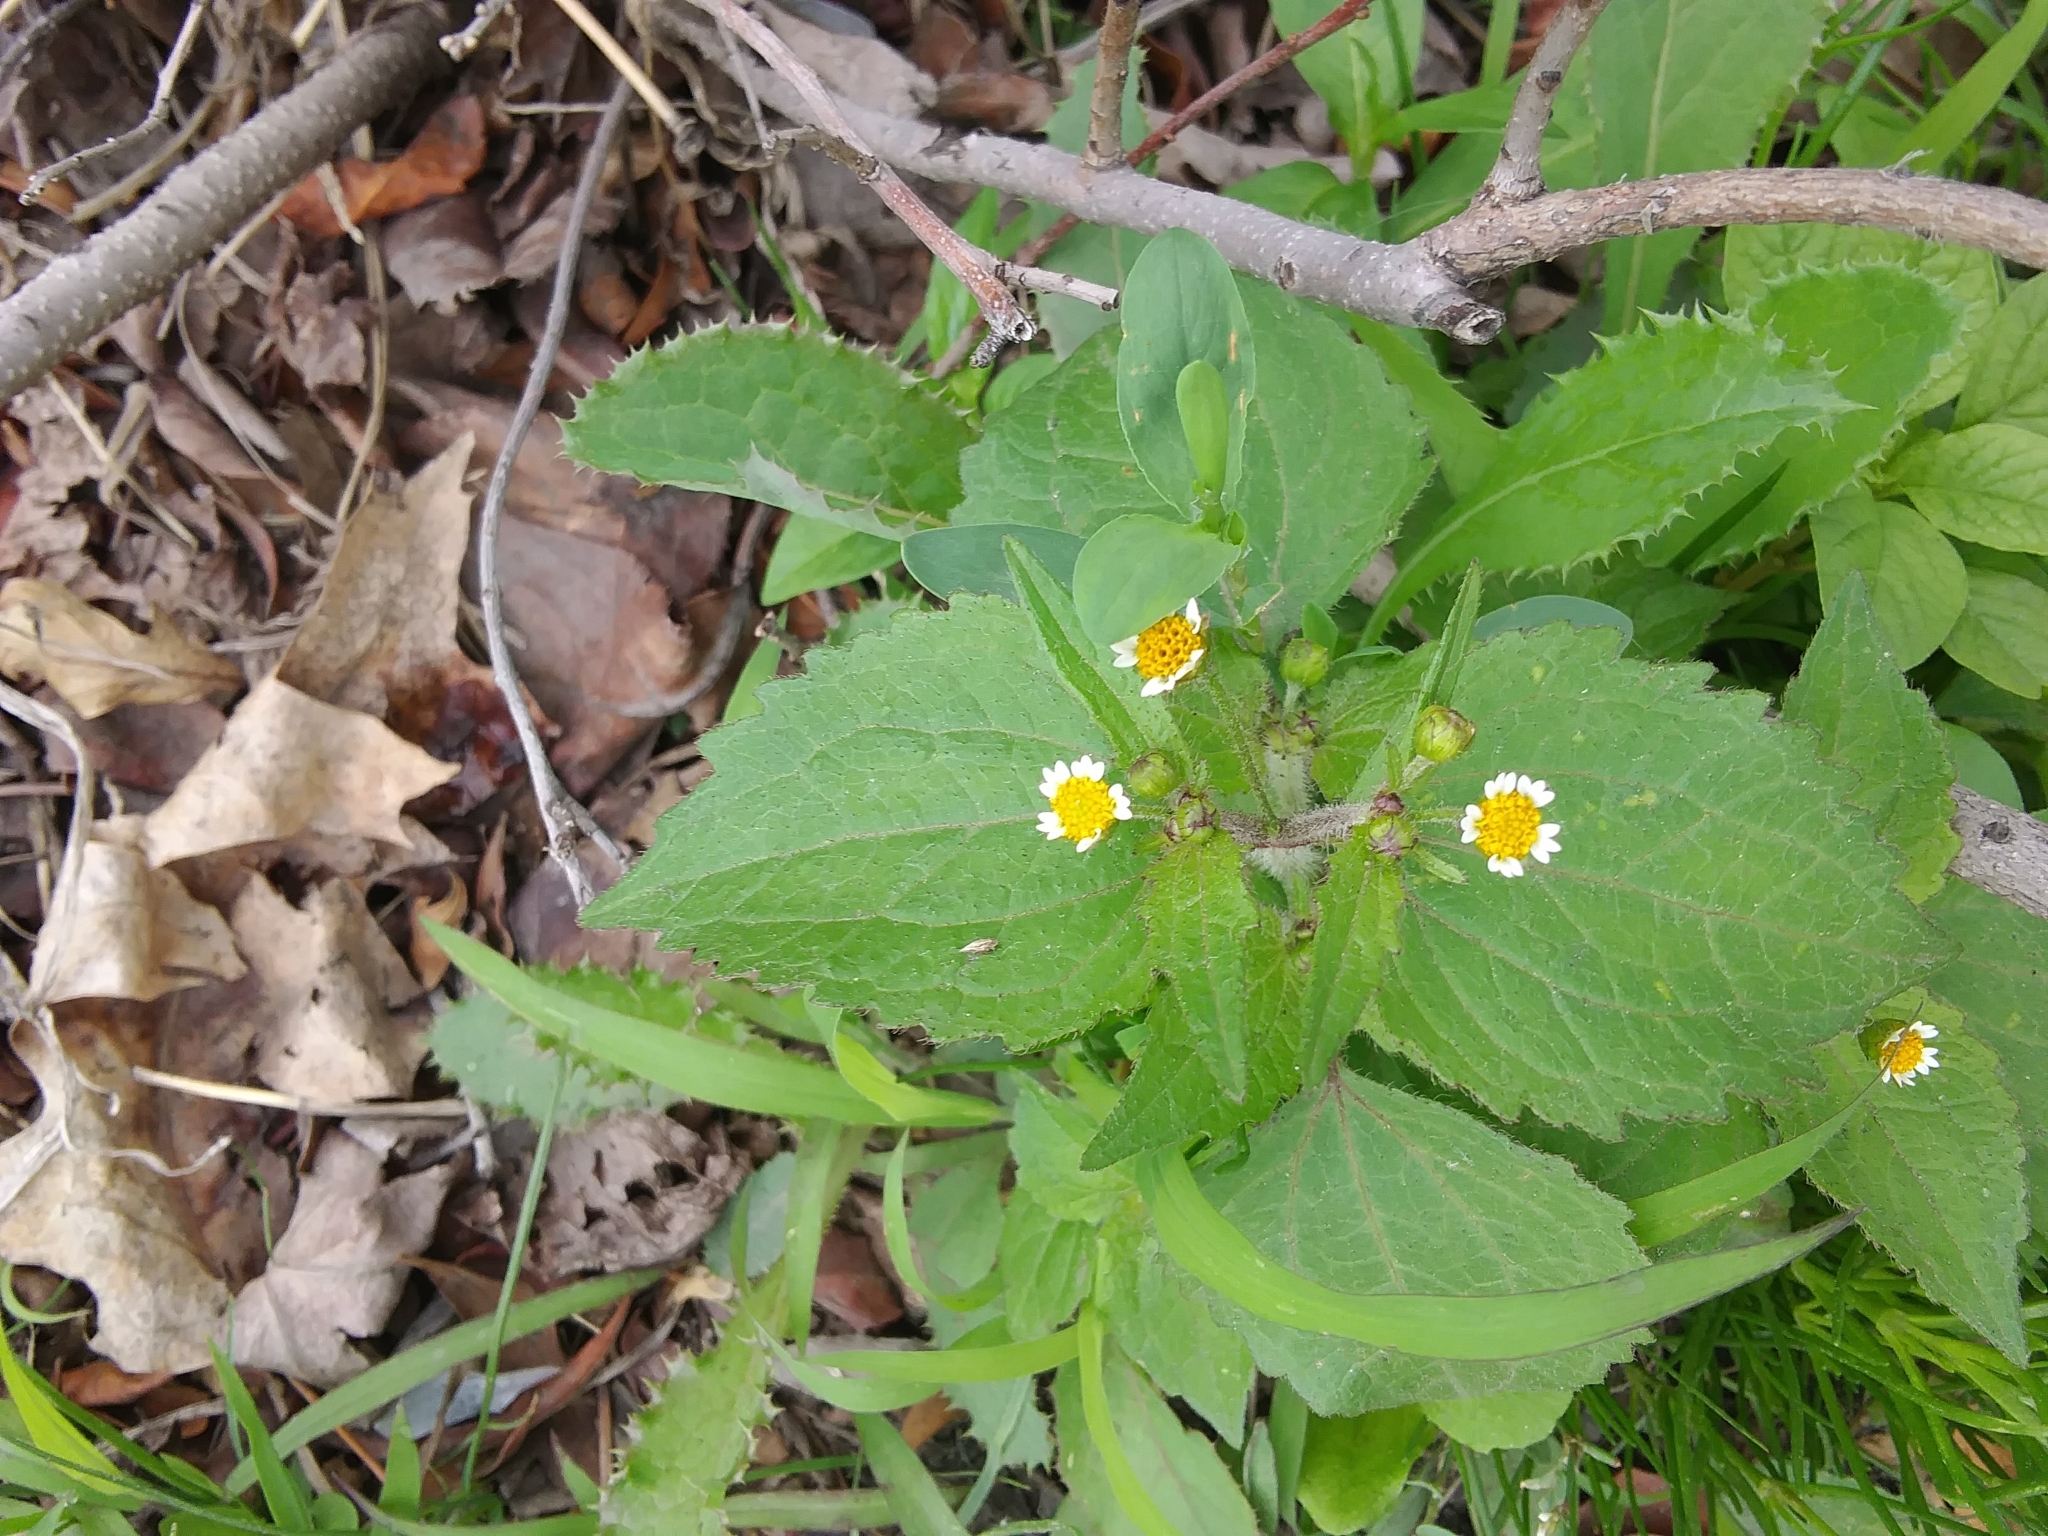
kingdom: Plantae
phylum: Tracheophyta
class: Magnoliopsida
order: Asterales
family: Asteraceae
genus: Galinsoga
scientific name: Galinsoga quadriradiata
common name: Shaggy soldier
